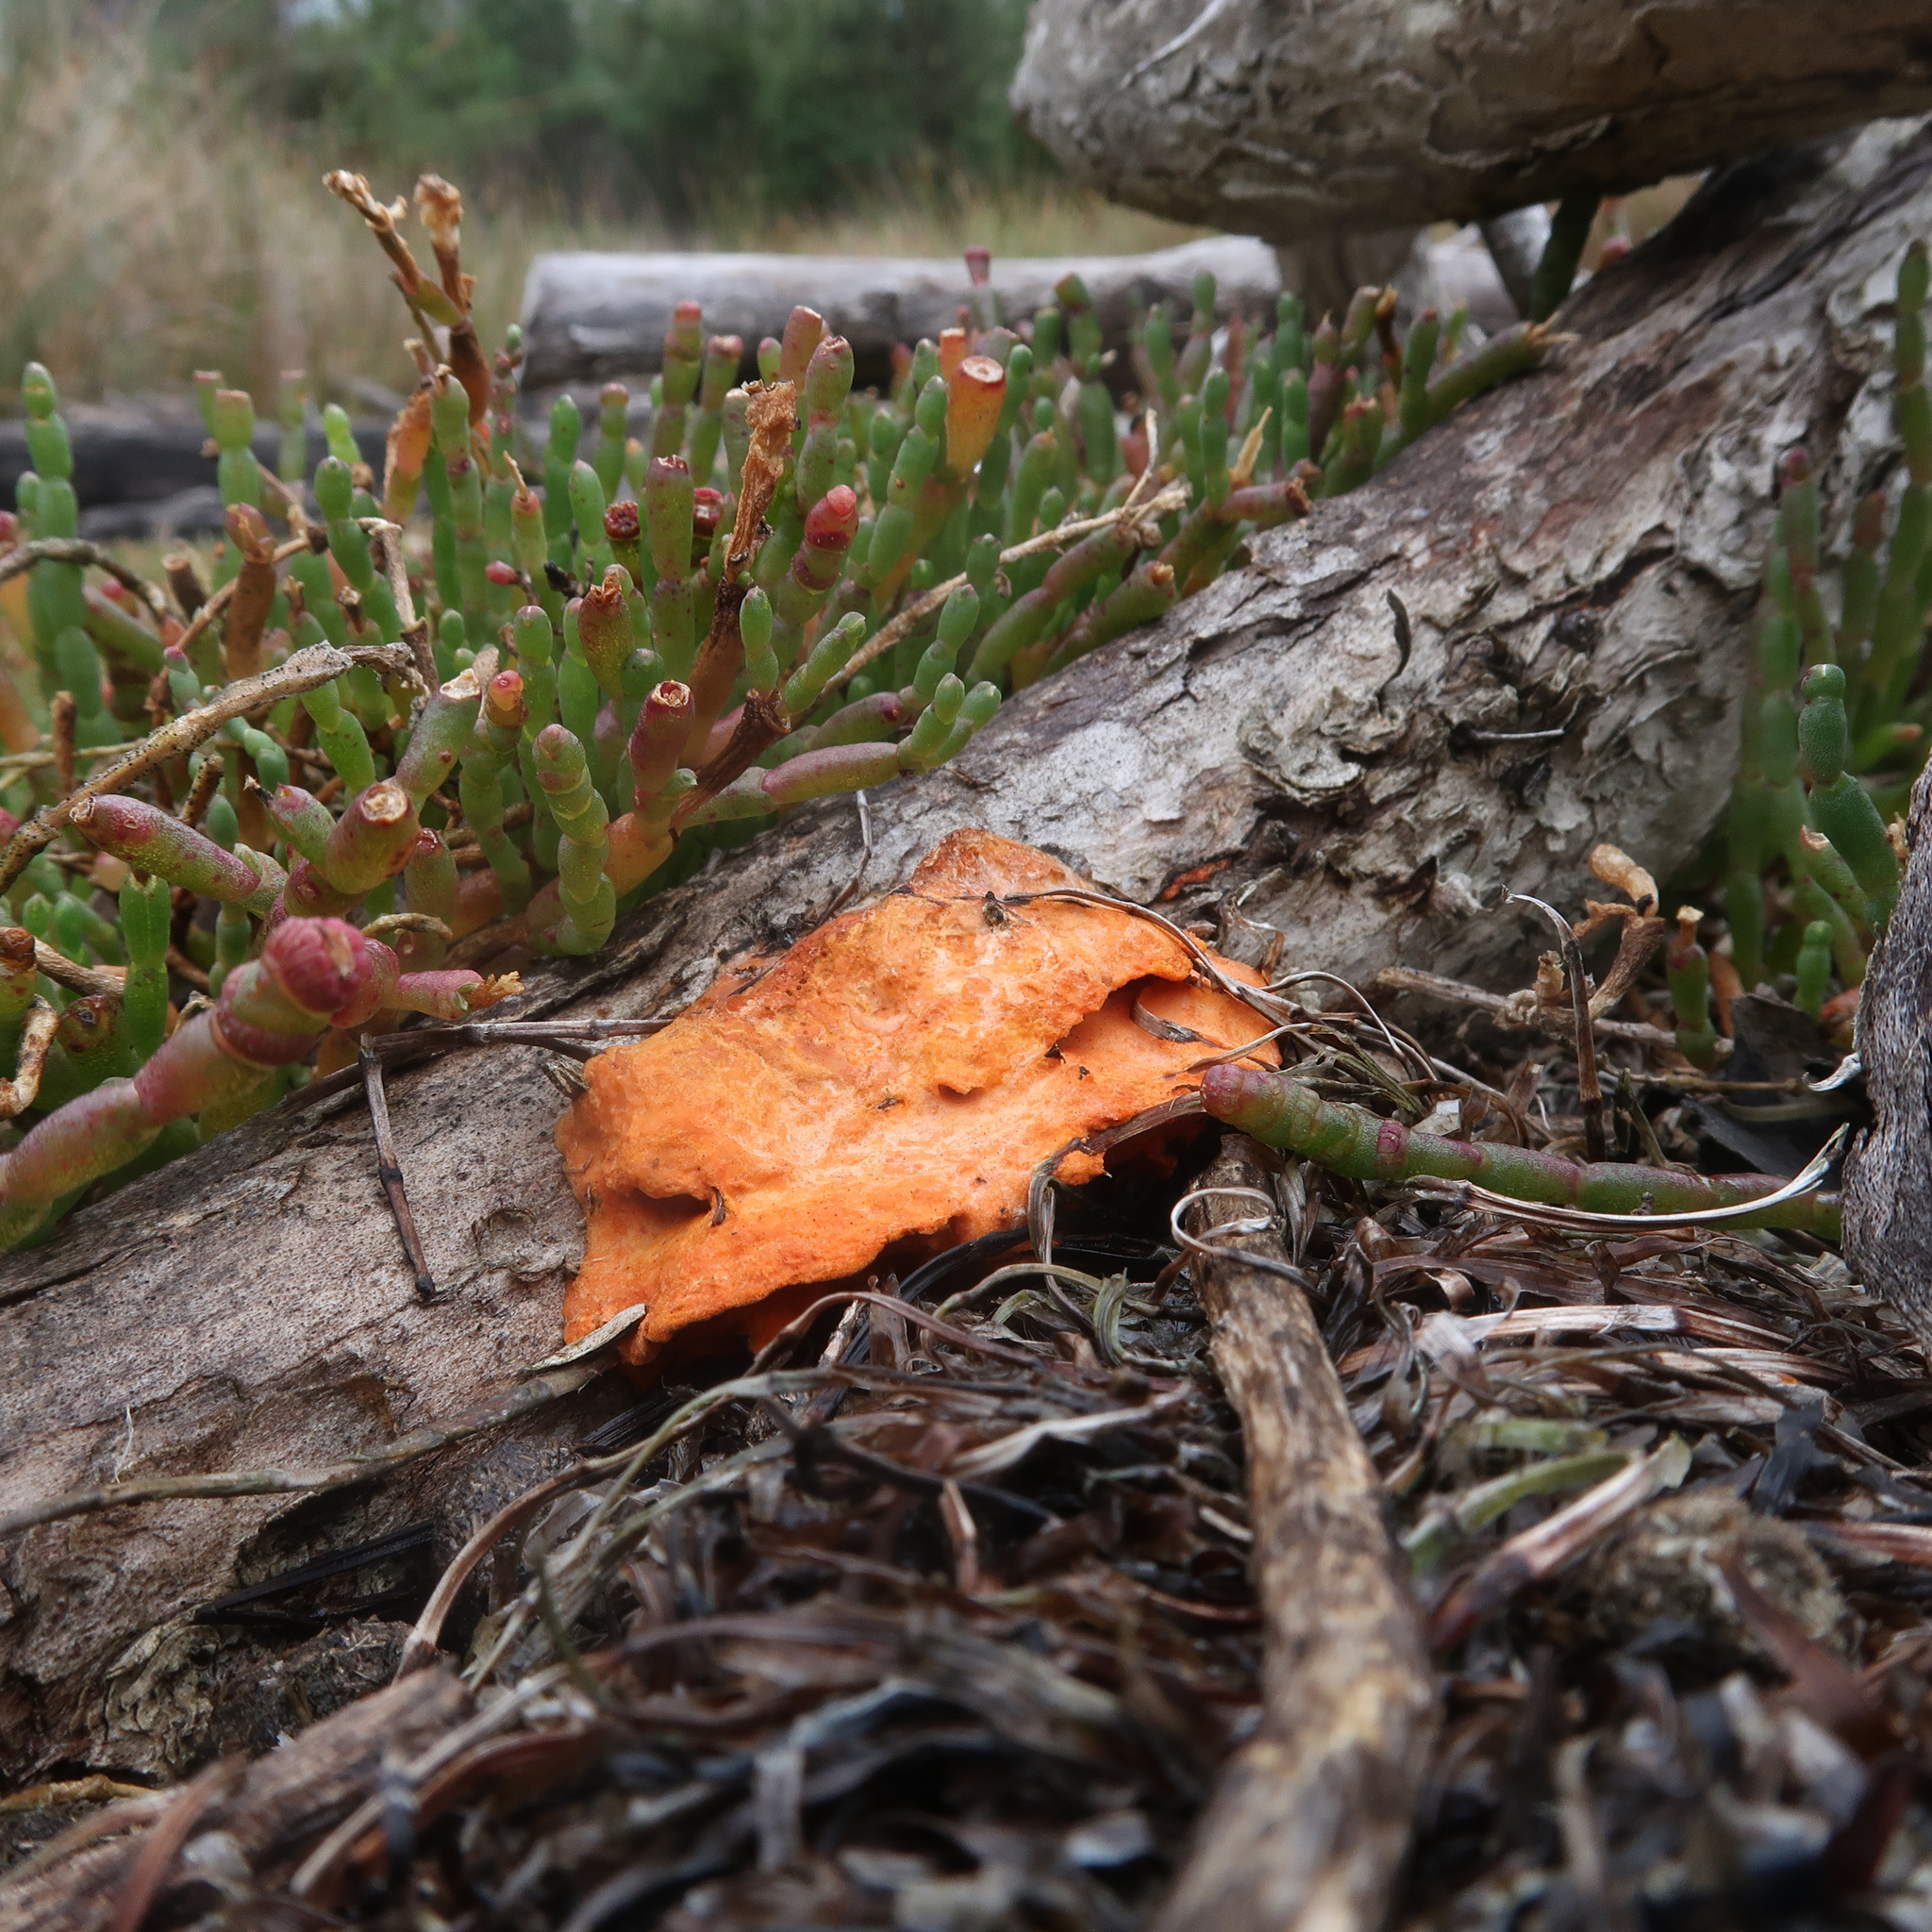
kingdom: Fungi
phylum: Basidiomycota
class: Agaricomycetes
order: Polyporales
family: Polyporaceae
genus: Trametes
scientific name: Trametes coccinea
